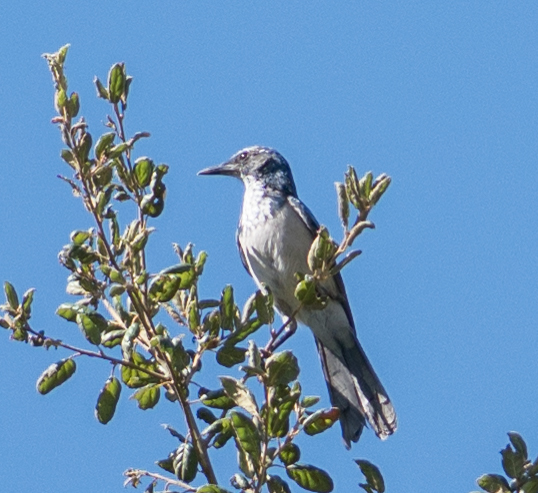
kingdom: Animalia
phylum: Chordata
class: Aves
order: Passeriformes
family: Corvidae
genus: Aphelocoma
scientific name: Aphelocoma californica
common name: California scrub-jay
